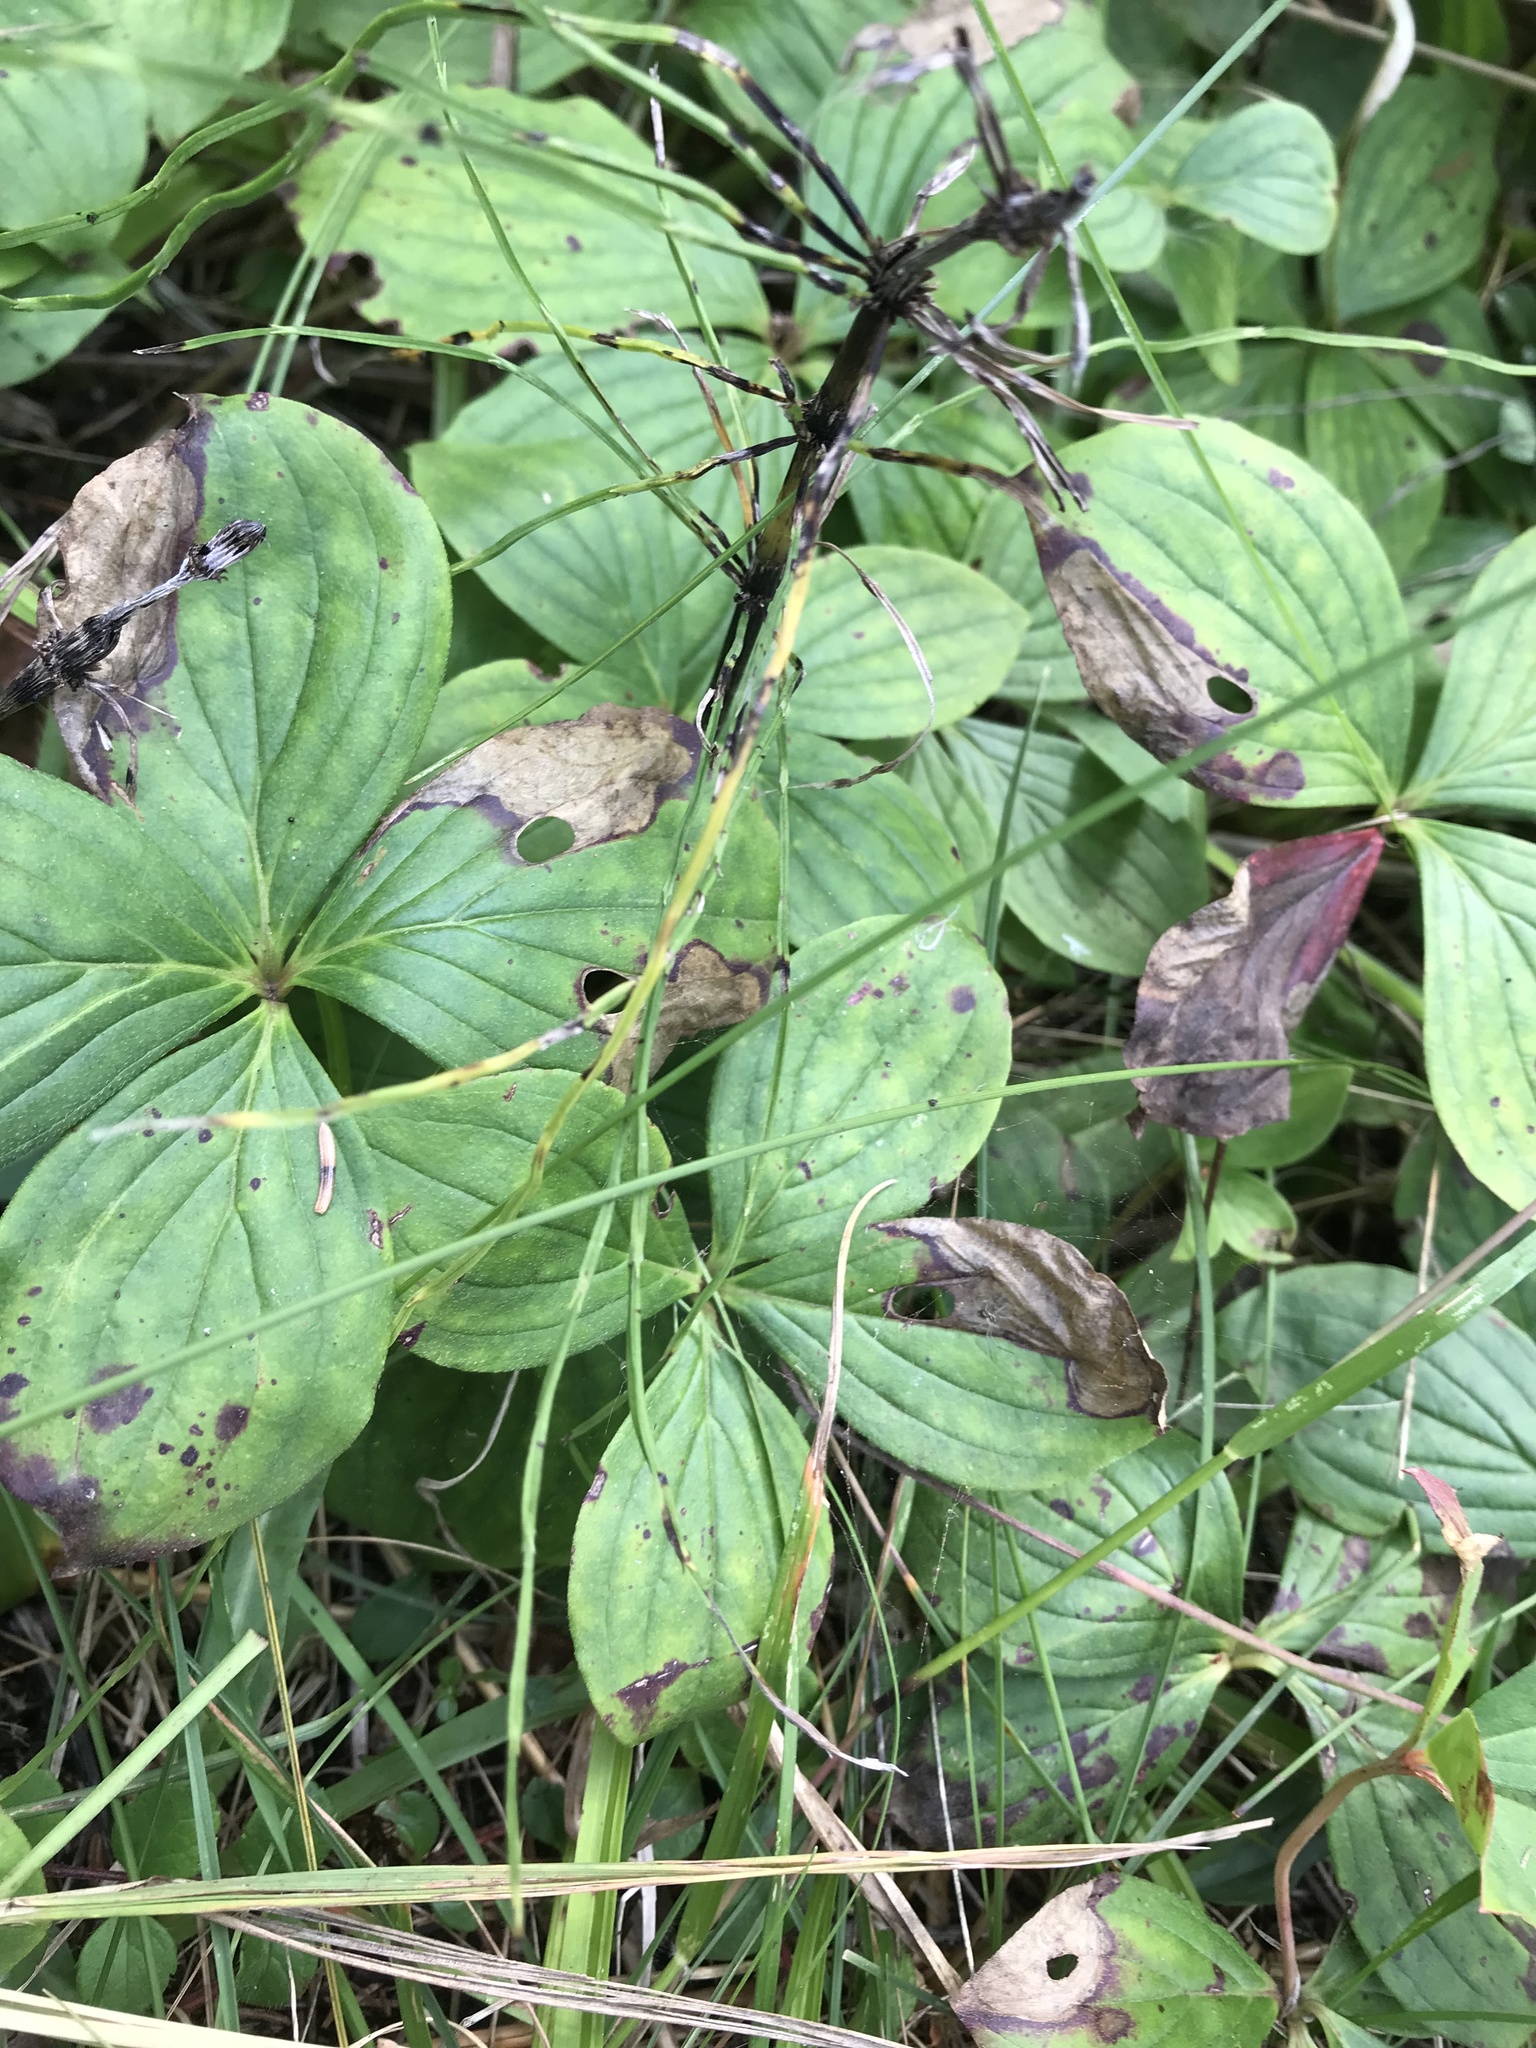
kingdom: Plantae
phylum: Tracheophyta
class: Magnoliopsida
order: Cornales
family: Cornaceae
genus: Cornus
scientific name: Cornus canadensis
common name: Creeping dogwood
